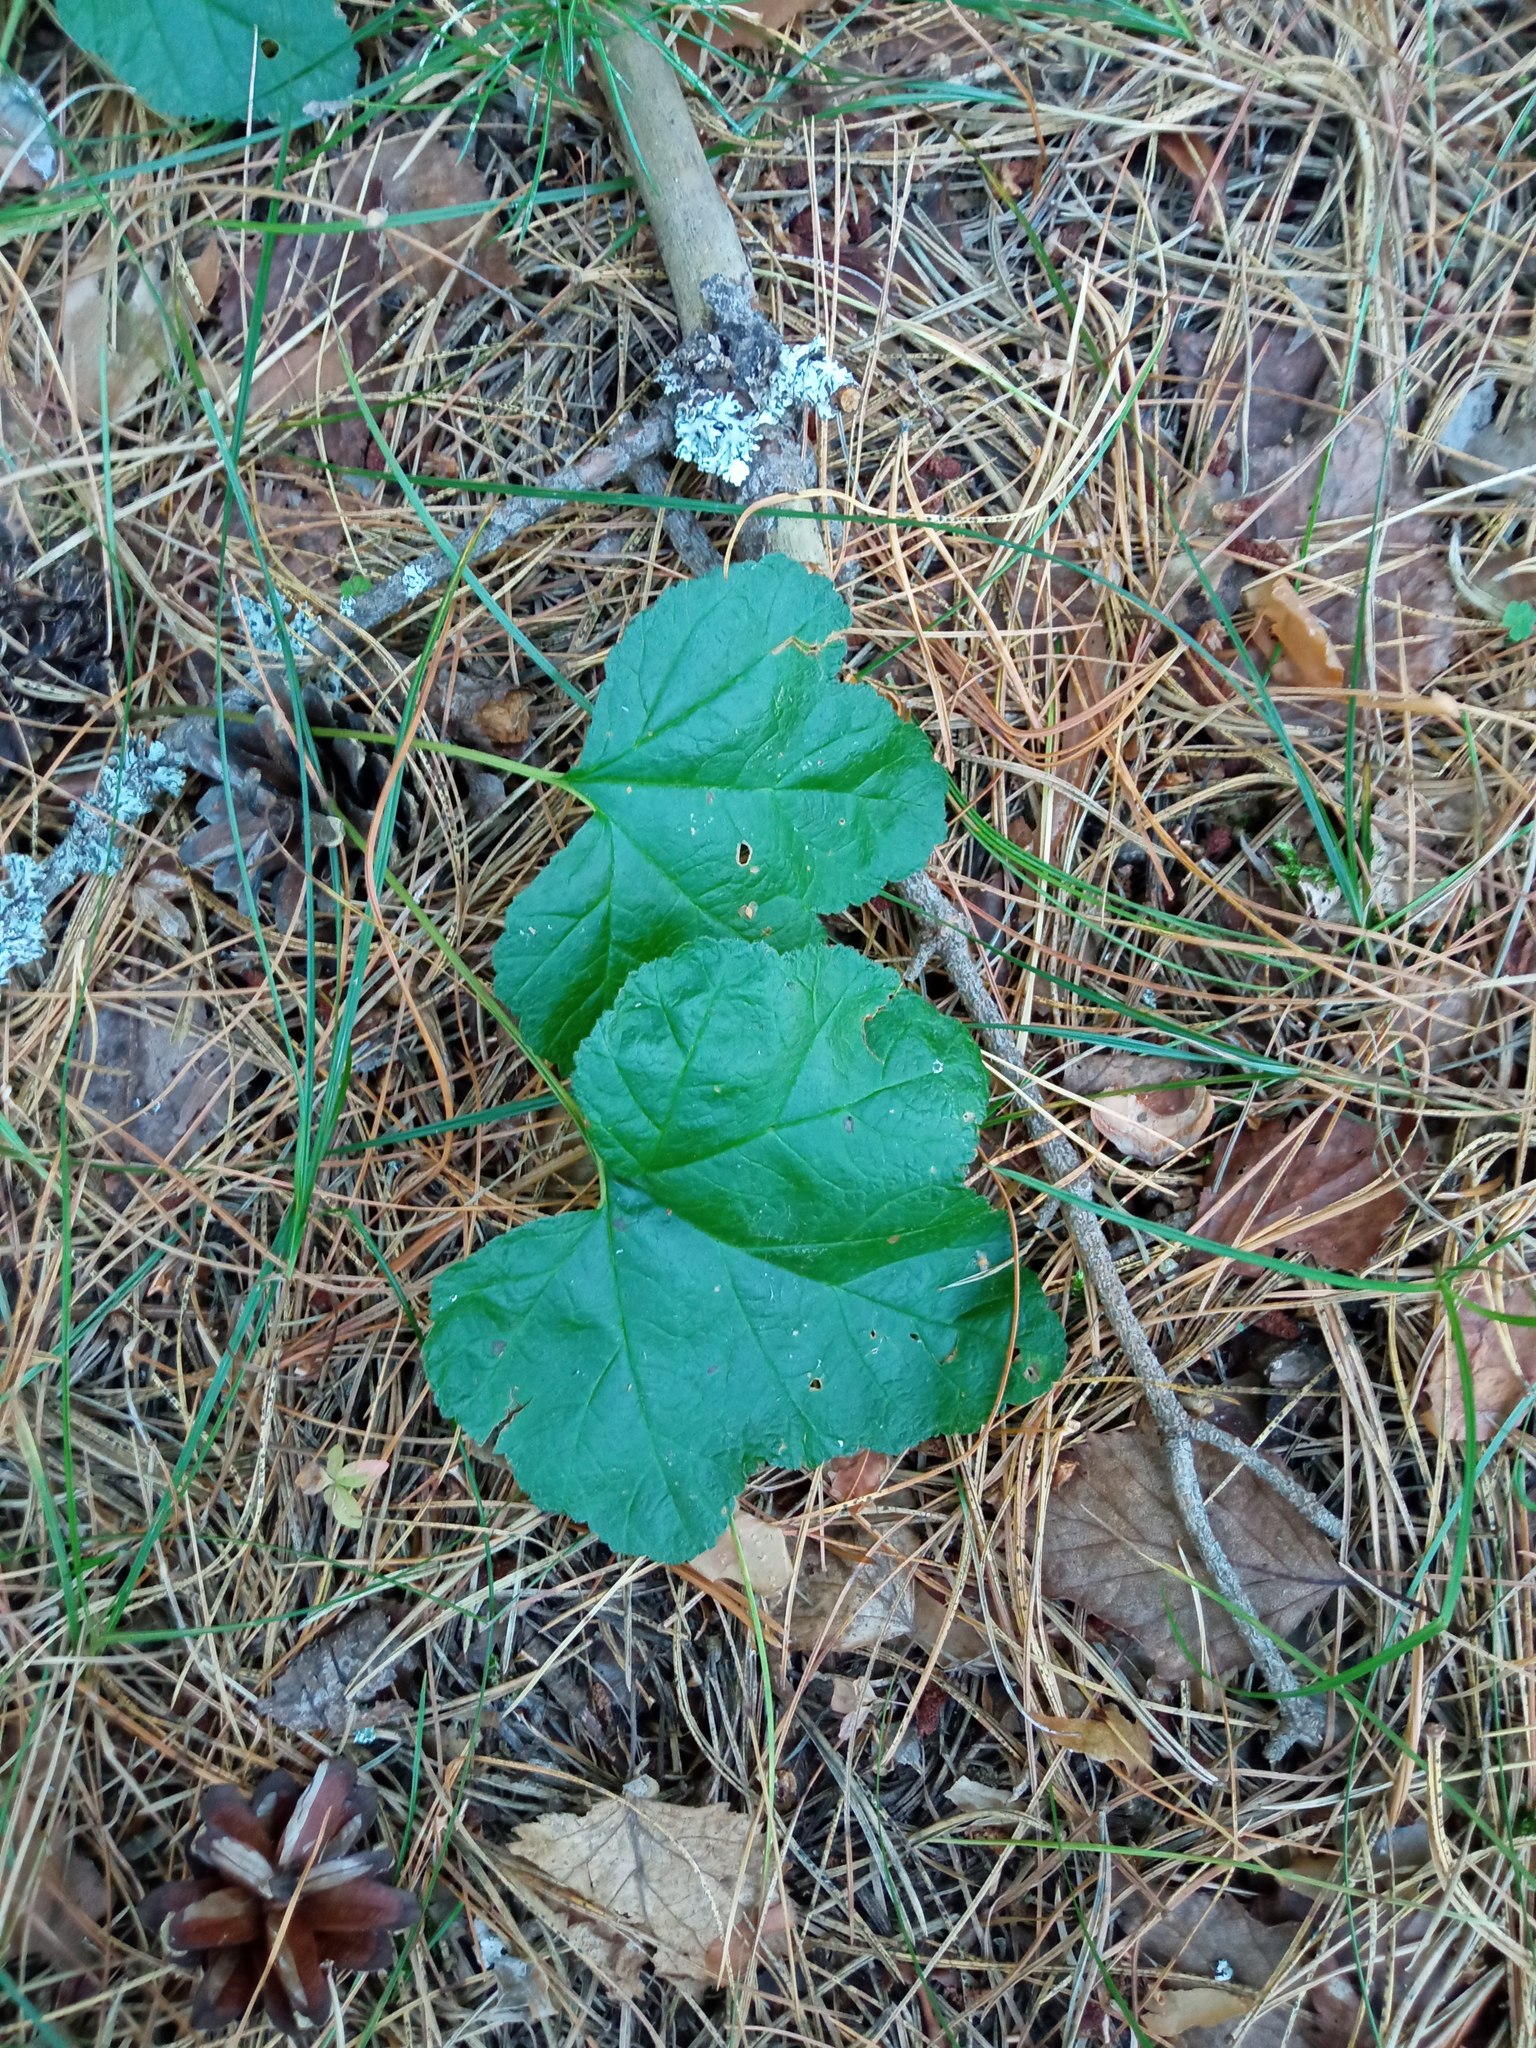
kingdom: Plantae
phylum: Tracheophyta
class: Magnoliopsida
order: Rosales
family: Rosaceae
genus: Rubus
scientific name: Rubus chamaemorus
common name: Cloudberry
